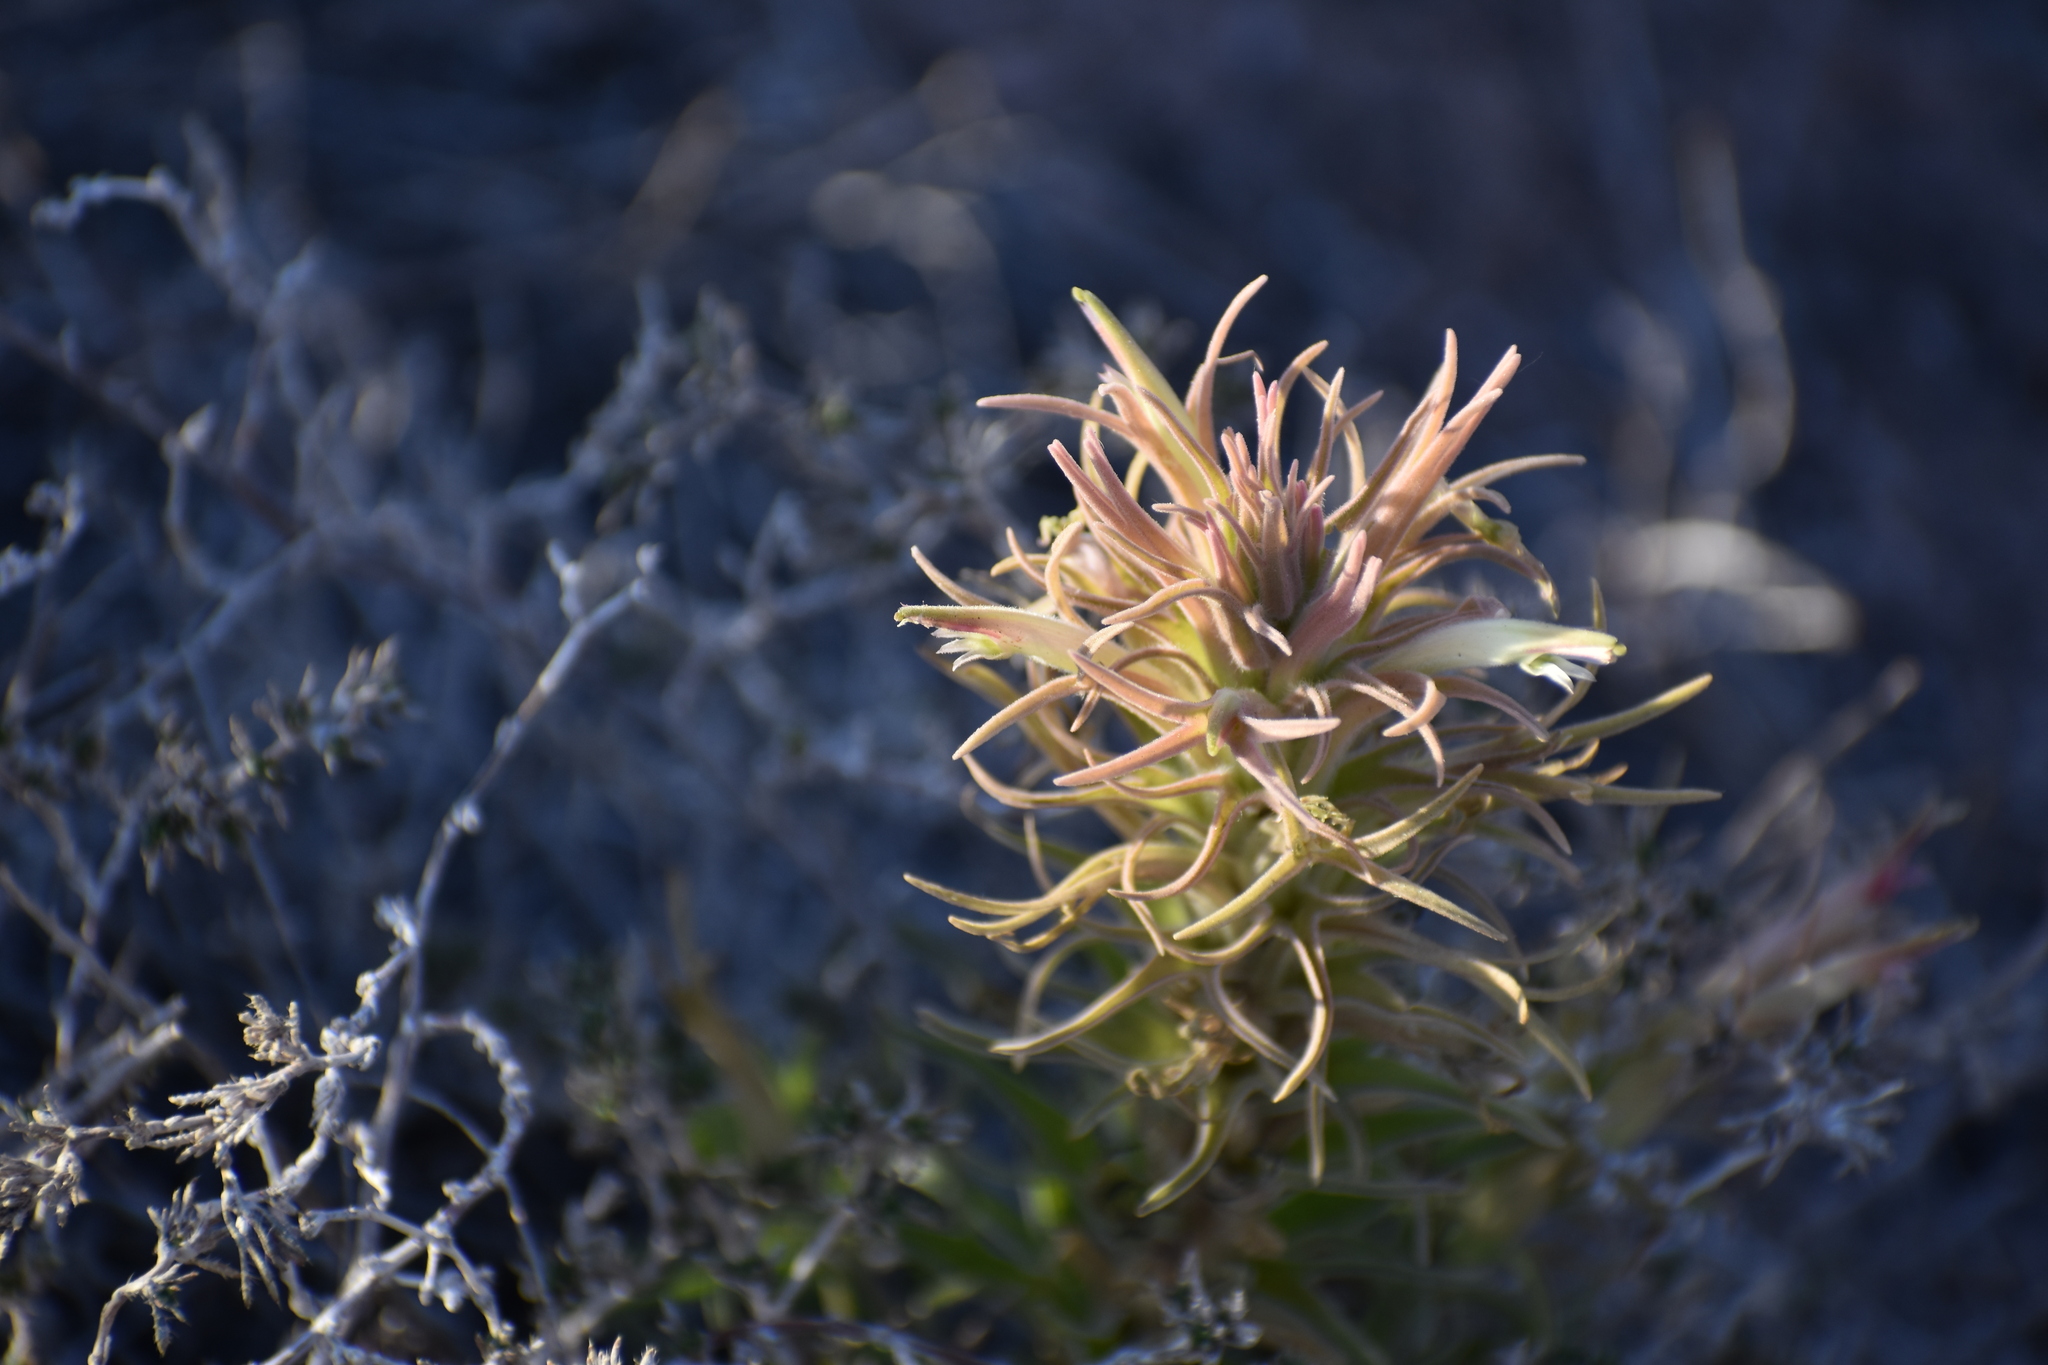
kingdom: Plantae
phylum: Tracheophyta
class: Magnoliopsida
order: Lamiales
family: Orobanchaceae
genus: Castilleja
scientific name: Castilleja sessiliflora
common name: Downy paintbrush
